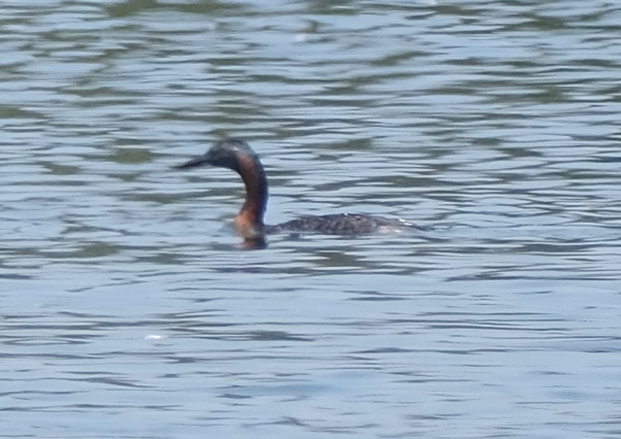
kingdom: Animalia
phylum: Chordata
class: Aves
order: Podicipediformes
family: Podicipedidae
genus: Podiceps
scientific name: Podiceps major
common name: Great grebe
